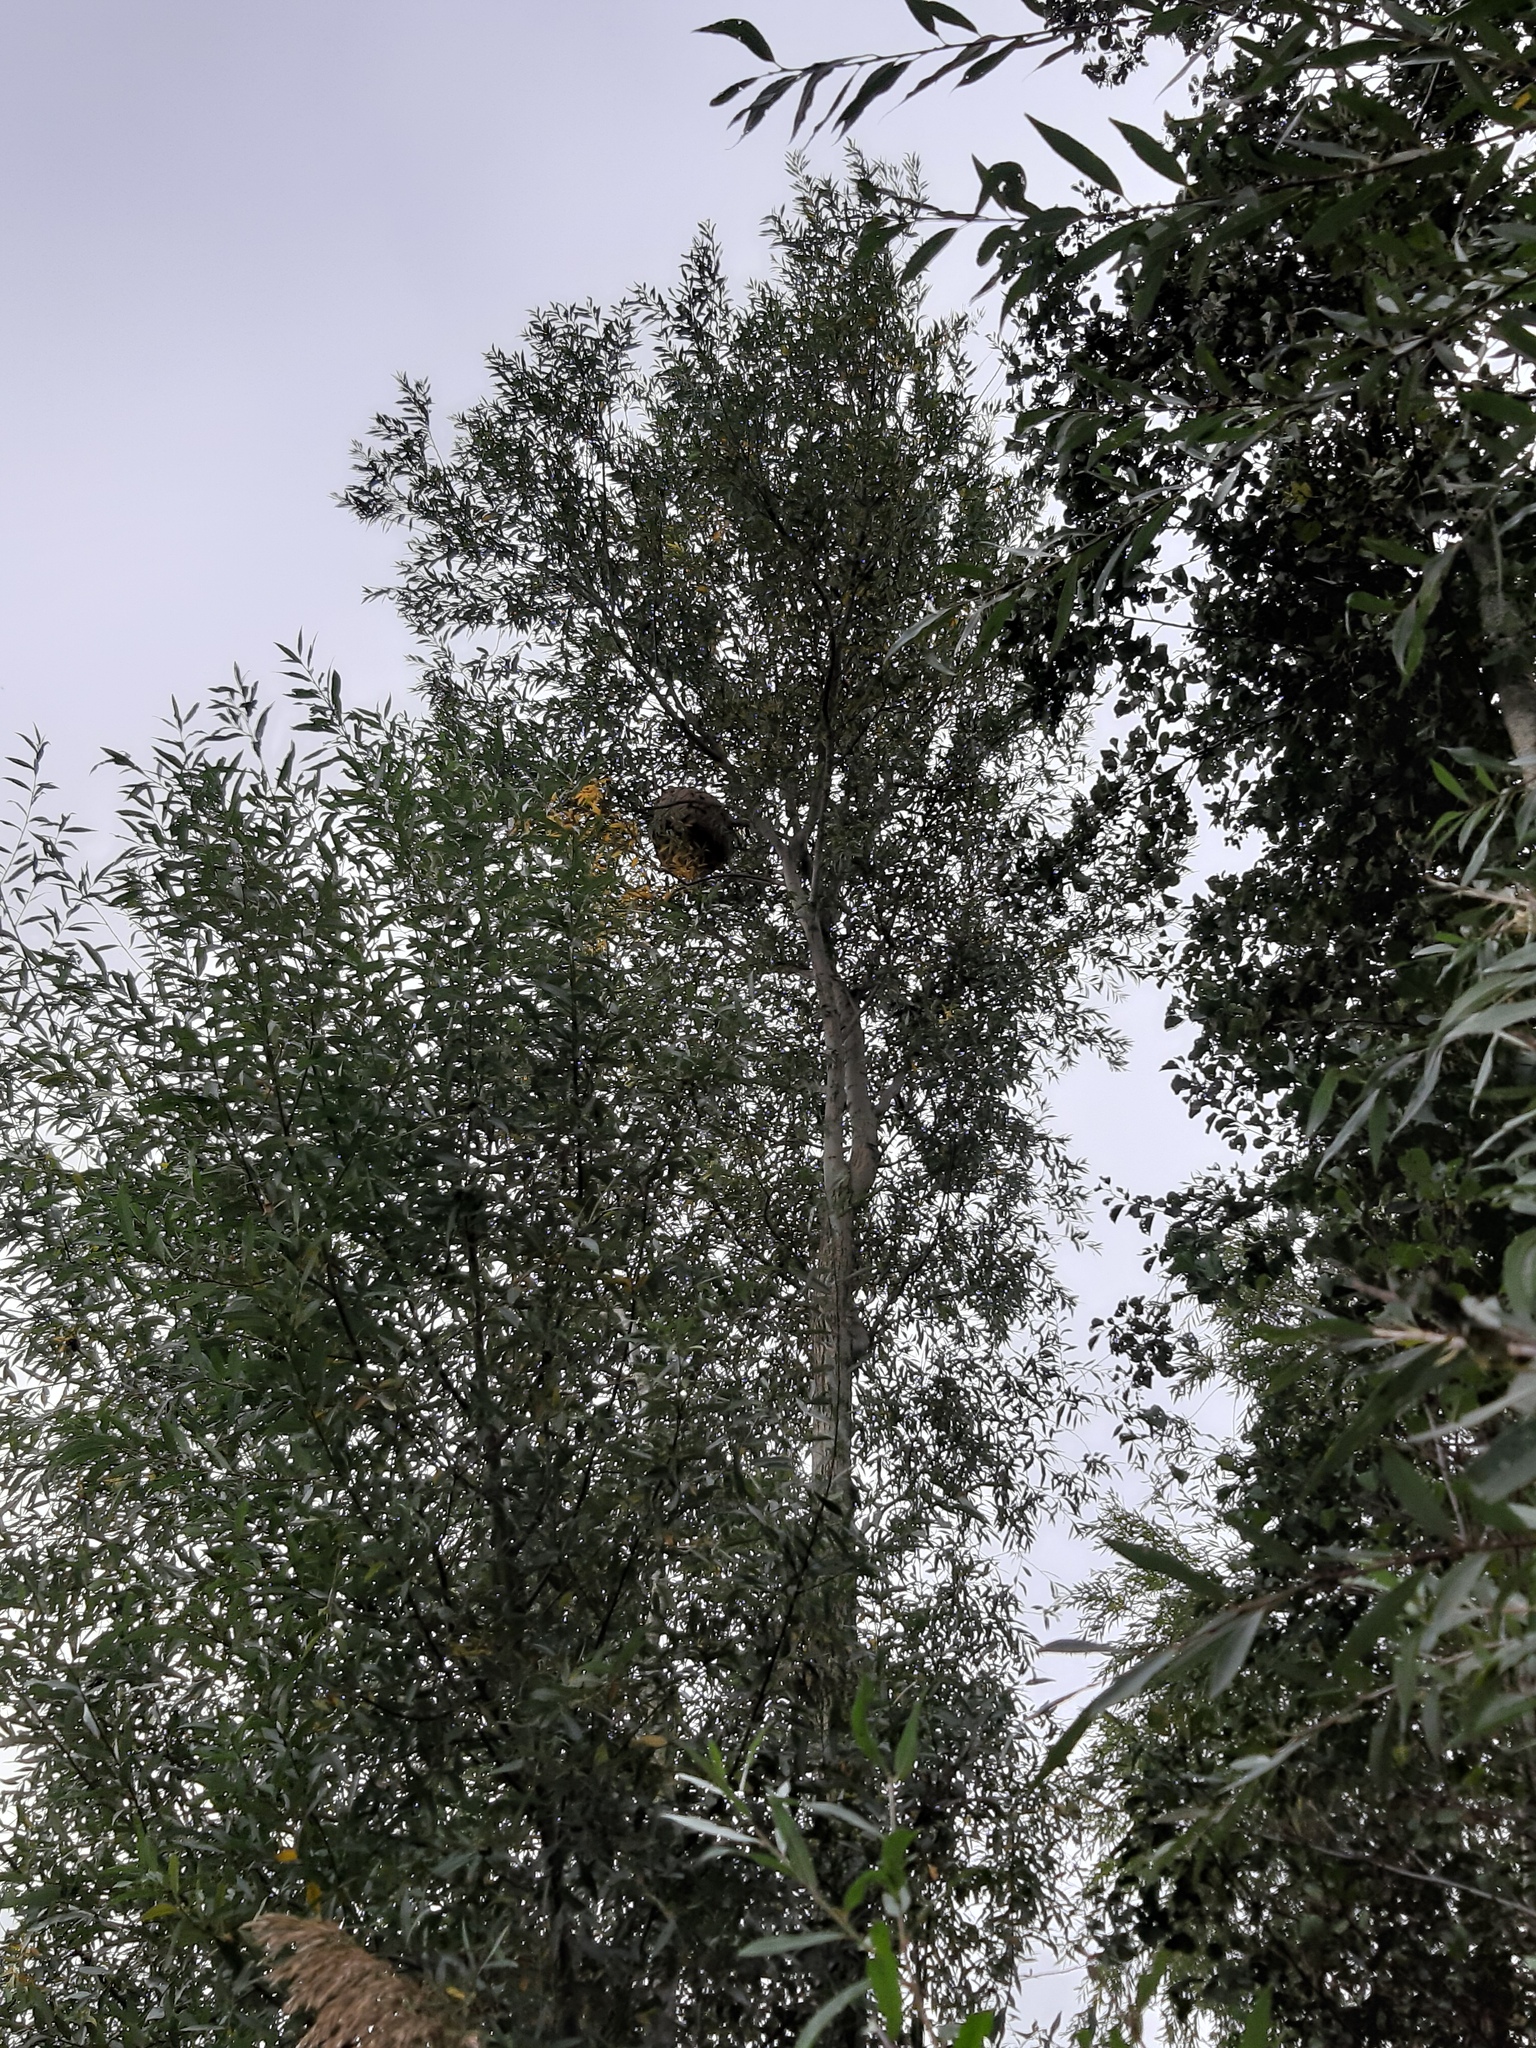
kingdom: Animalia
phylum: Arthropoda
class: Insecta
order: Hymenoptera
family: Vespidae
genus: Vespa
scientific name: Vespa velutina
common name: Asian hornet
